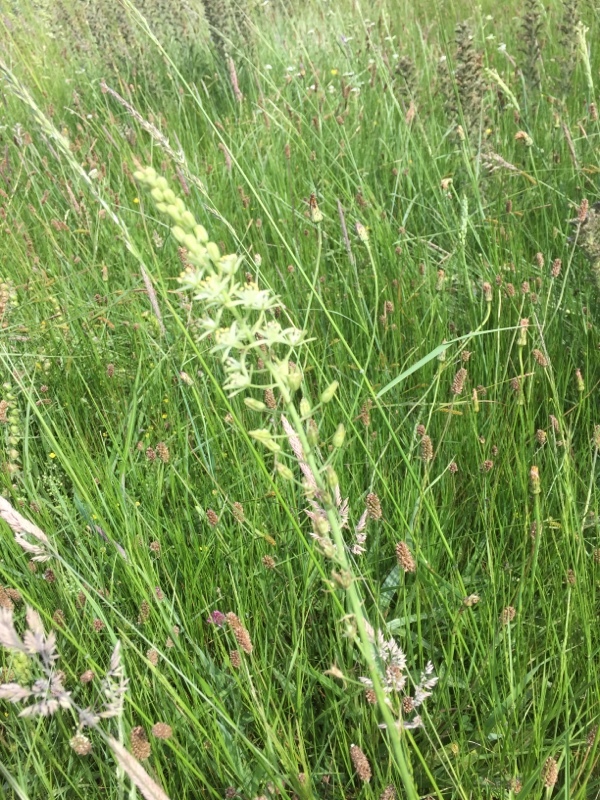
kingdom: Plantae
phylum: Tracheophyta
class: Liliopsida
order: Asparagales
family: Asparagaceae
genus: Ornithogalum
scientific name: Ornithogalum pyrenaicum
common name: Spiked star-of-bethlehem
